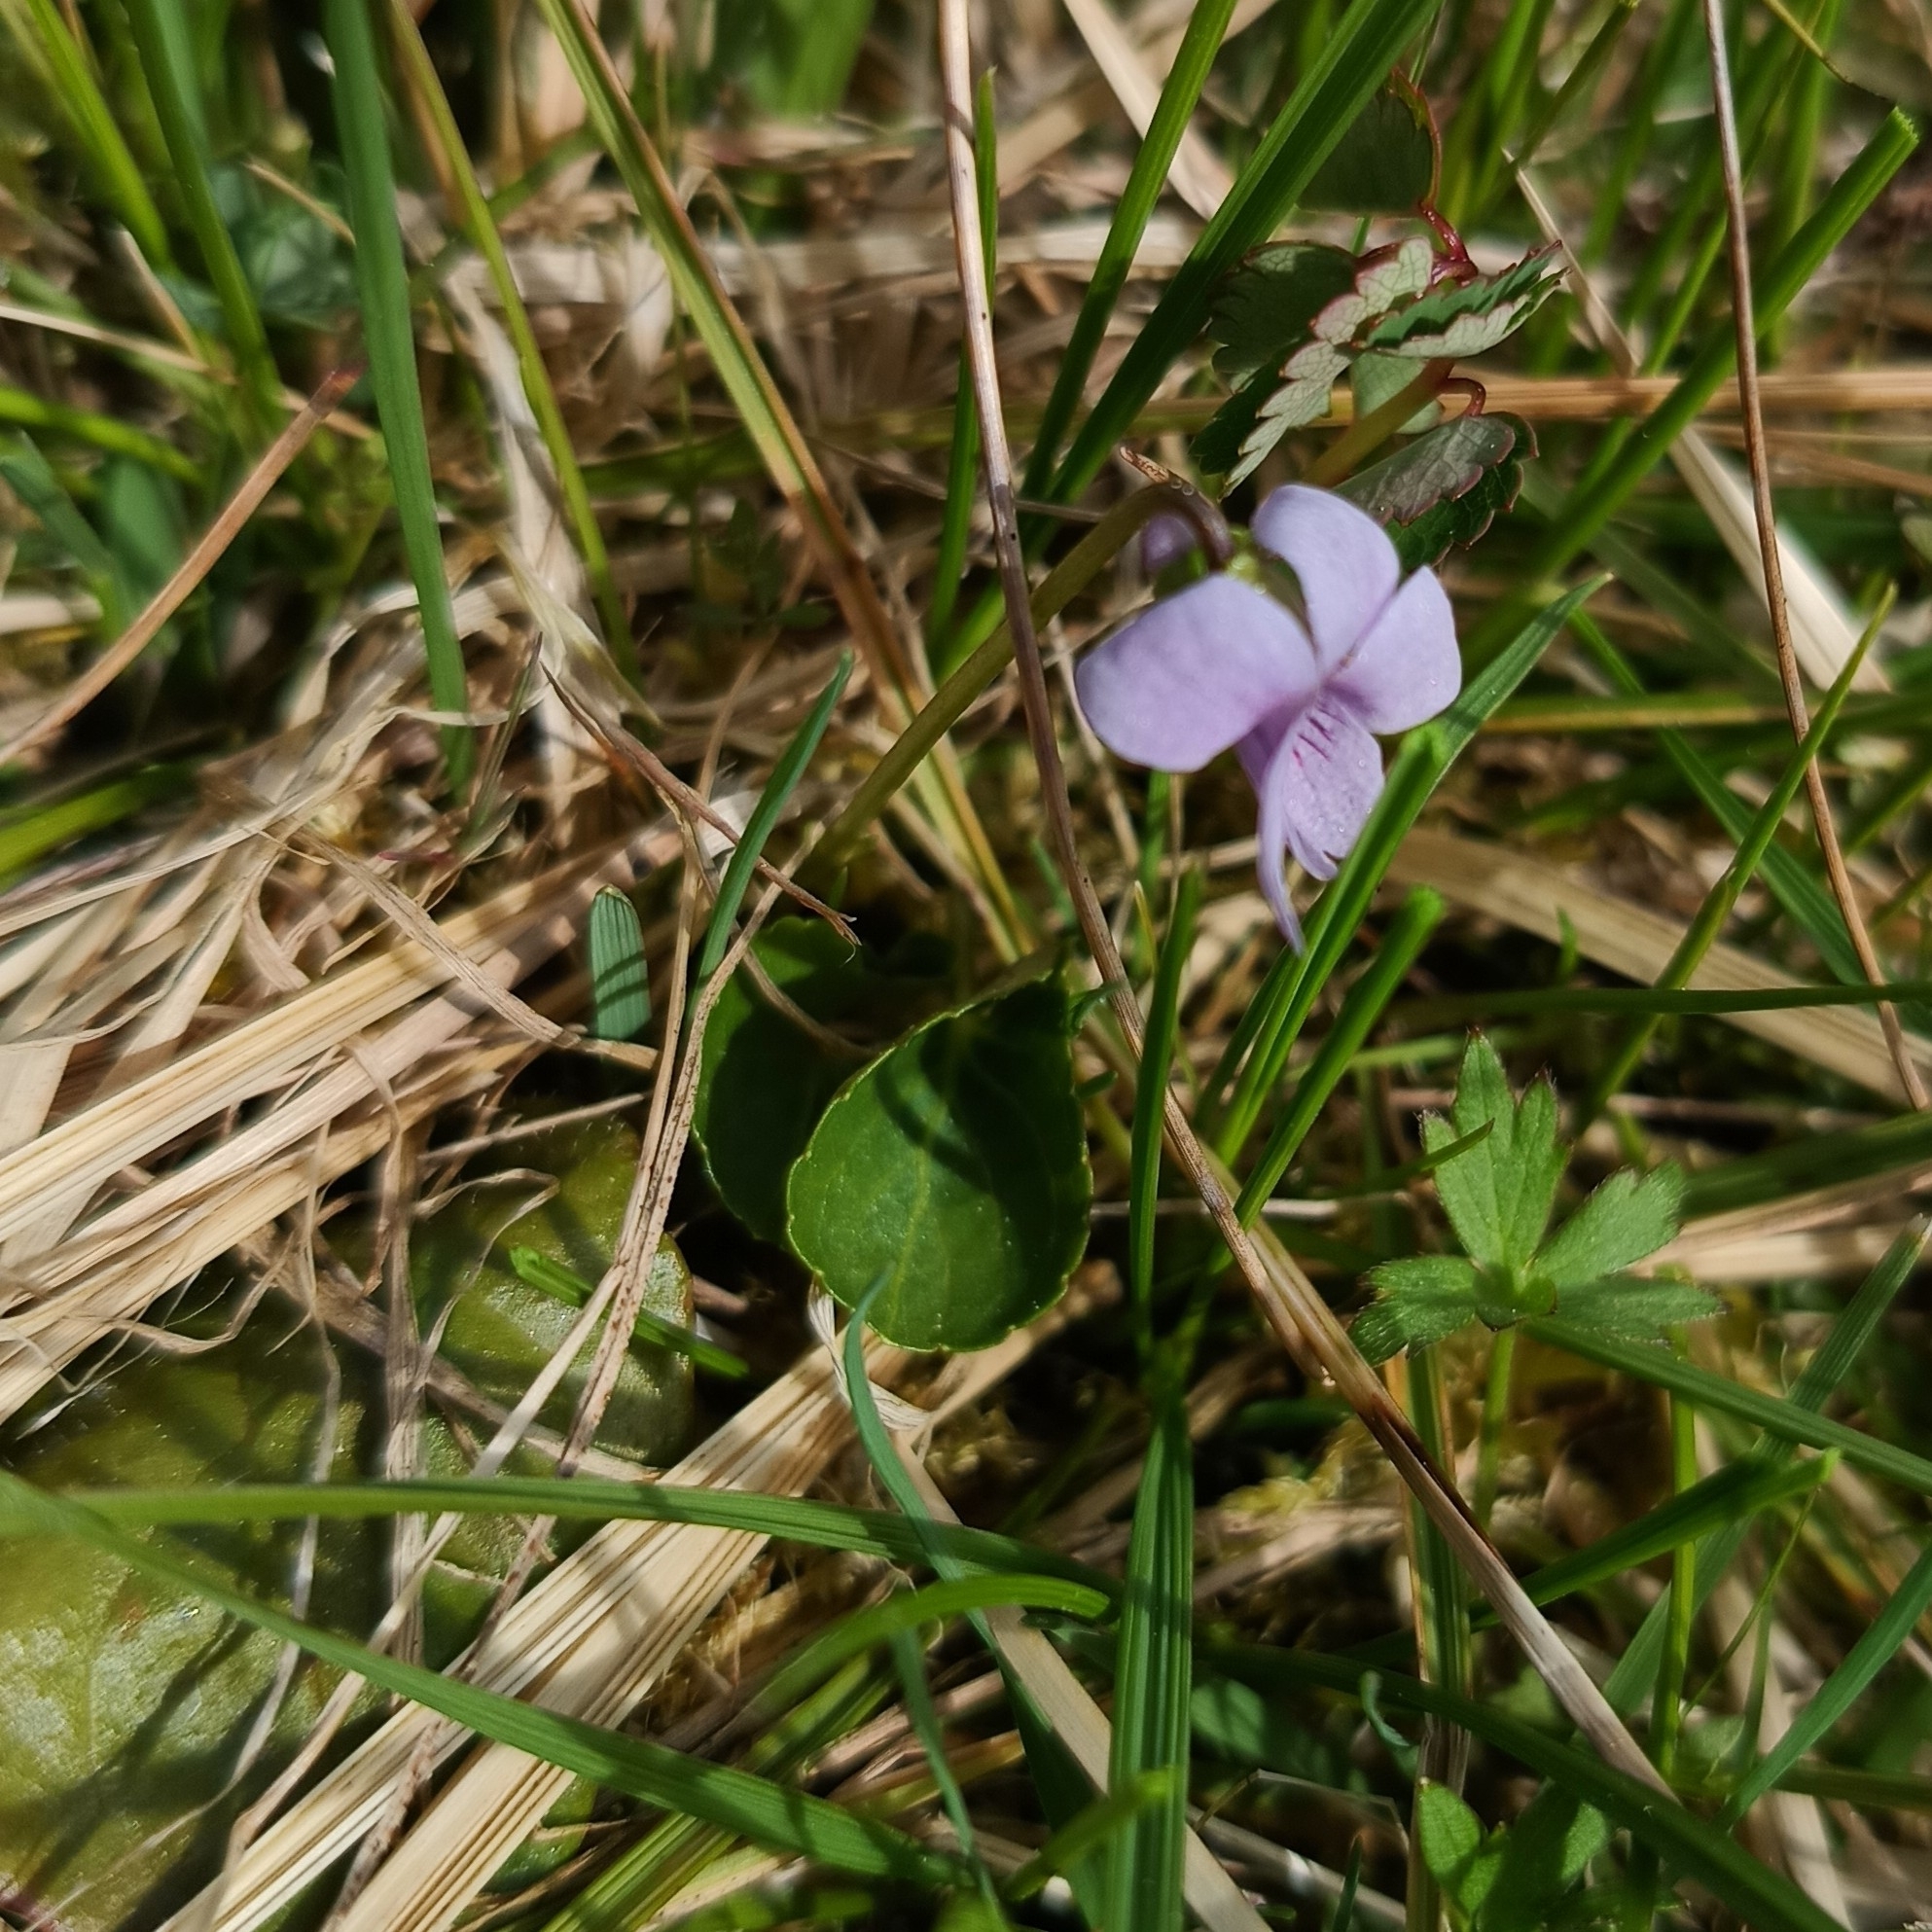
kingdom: Plantae
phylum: Tracheophyta
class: Magnoliopsida
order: Malpighiales
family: Violaceae
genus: Viola
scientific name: Viola palustris
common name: Marsh violet
